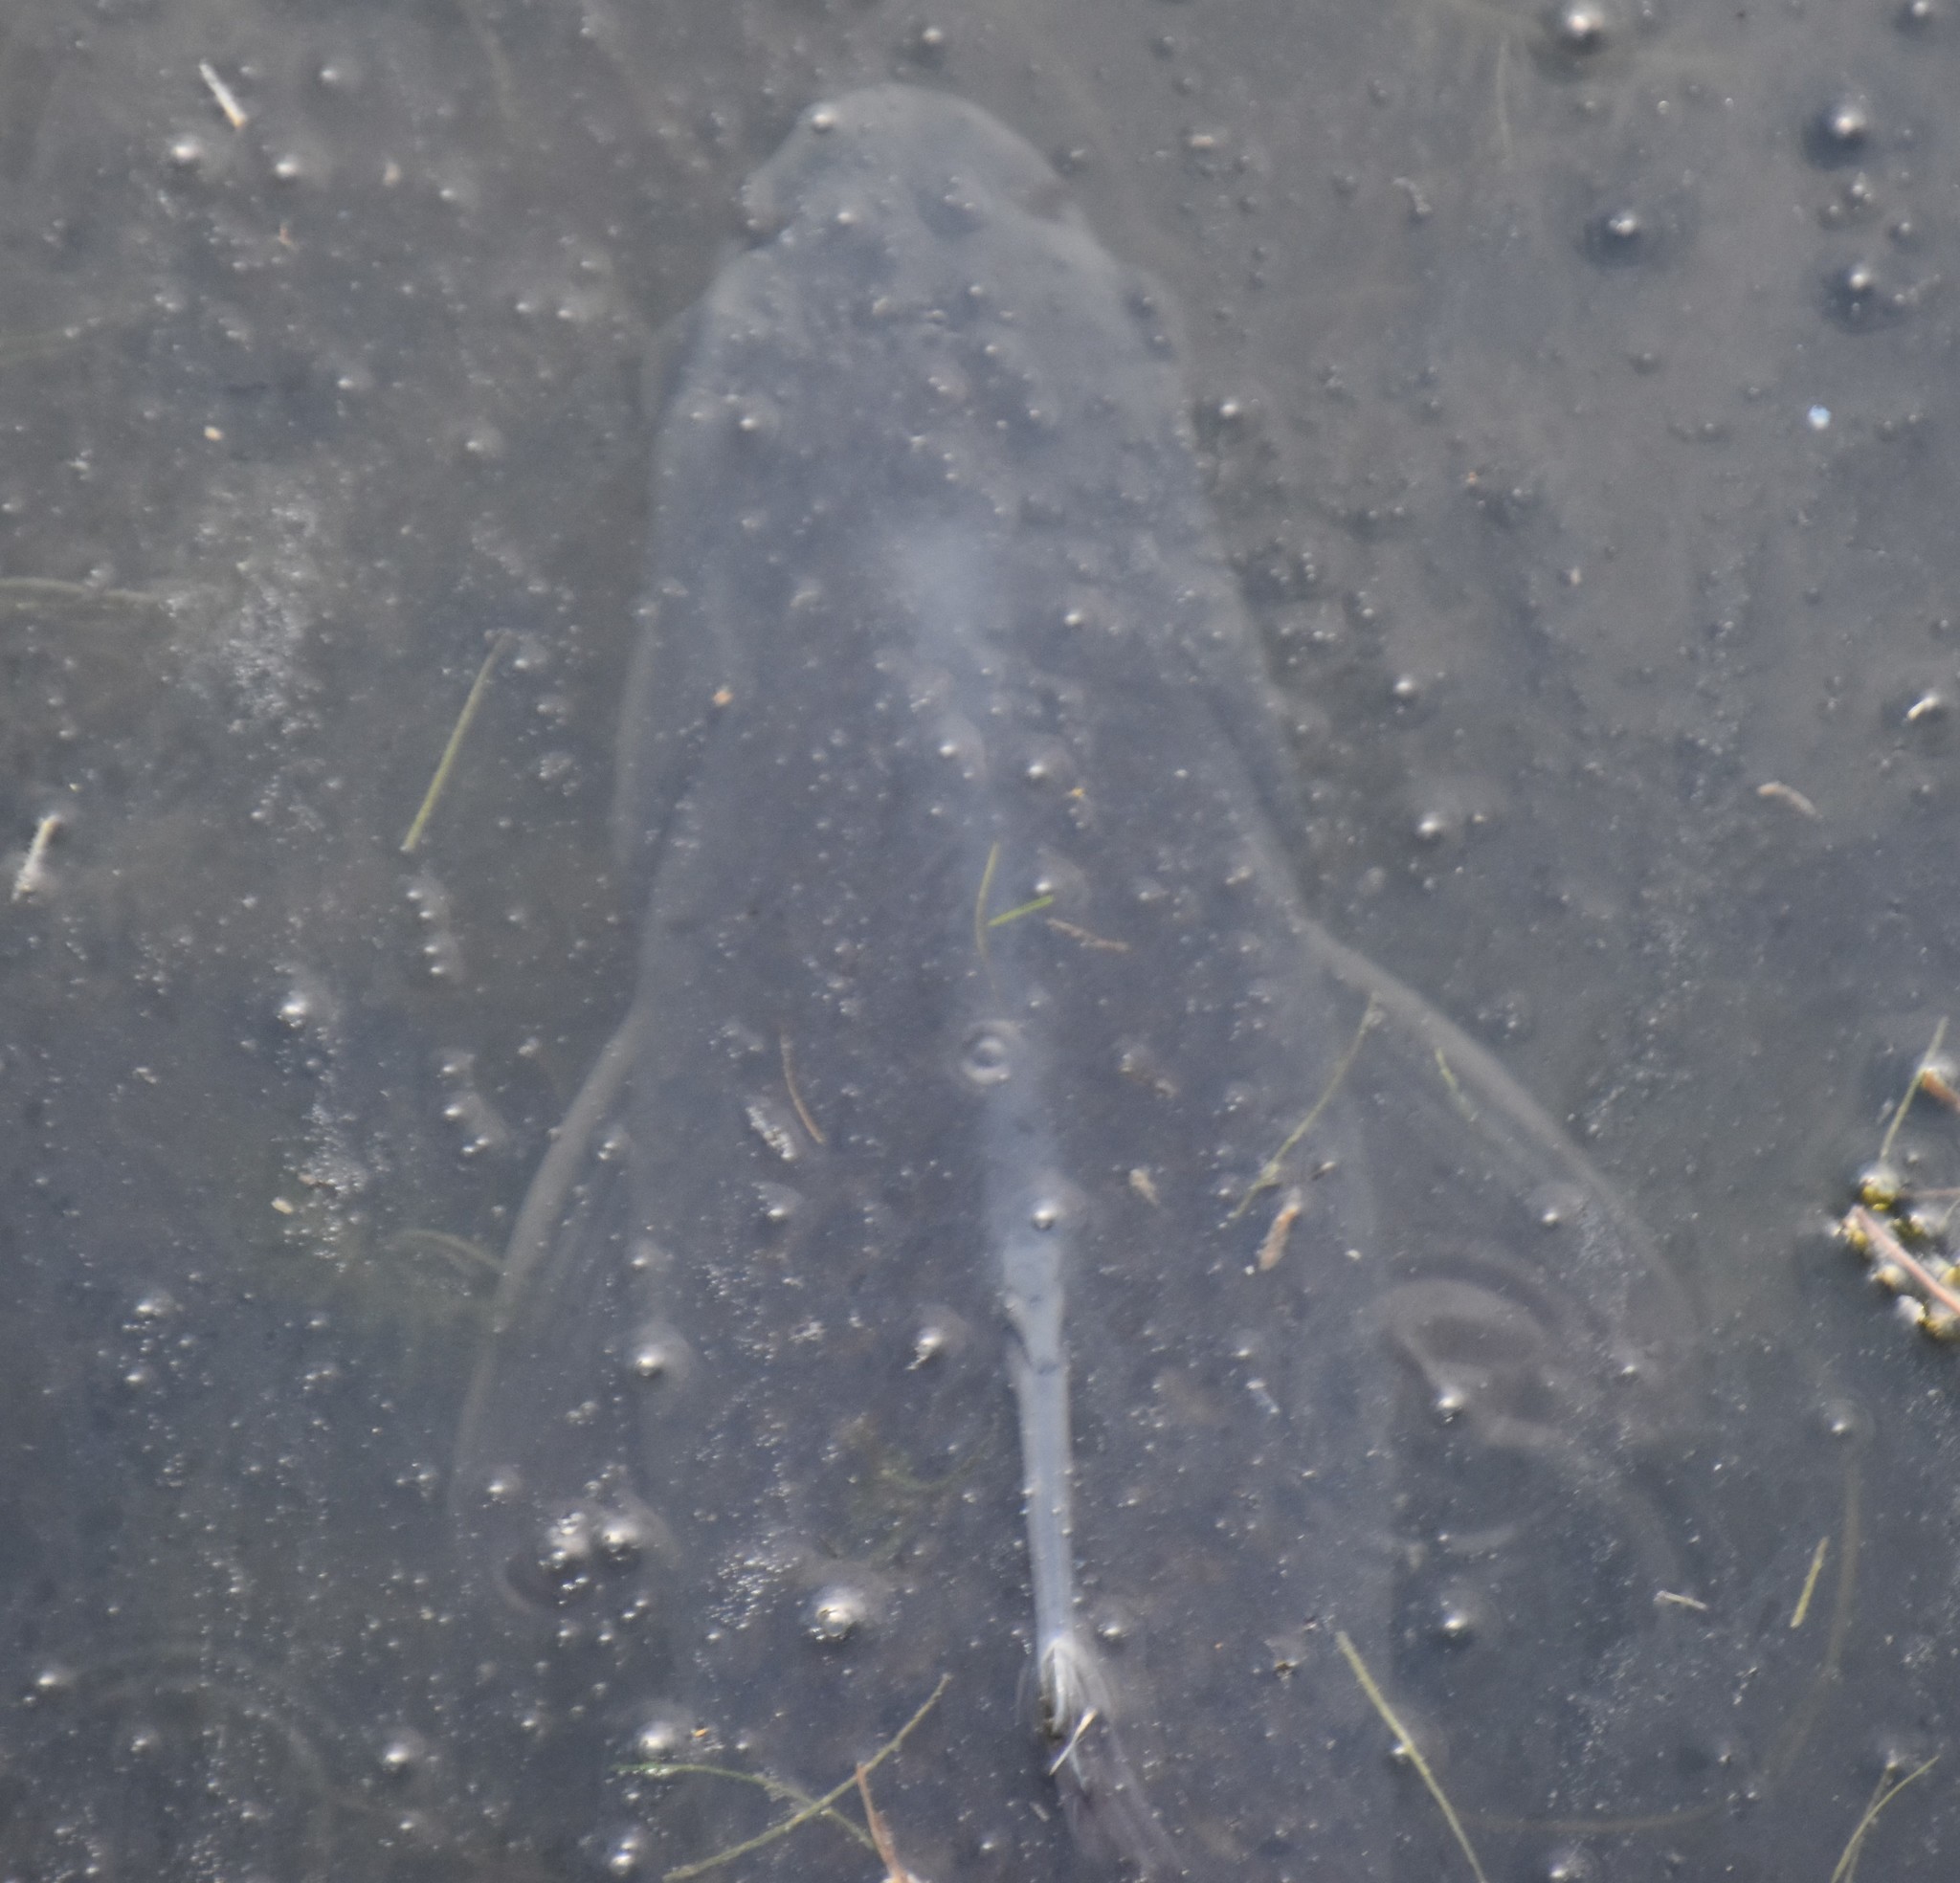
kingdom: Animalia
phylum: Chordata
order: Cypriniformes
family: Cyprinidae
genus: Cyprinus
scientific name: Cyprinus carpio
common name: Common carp
